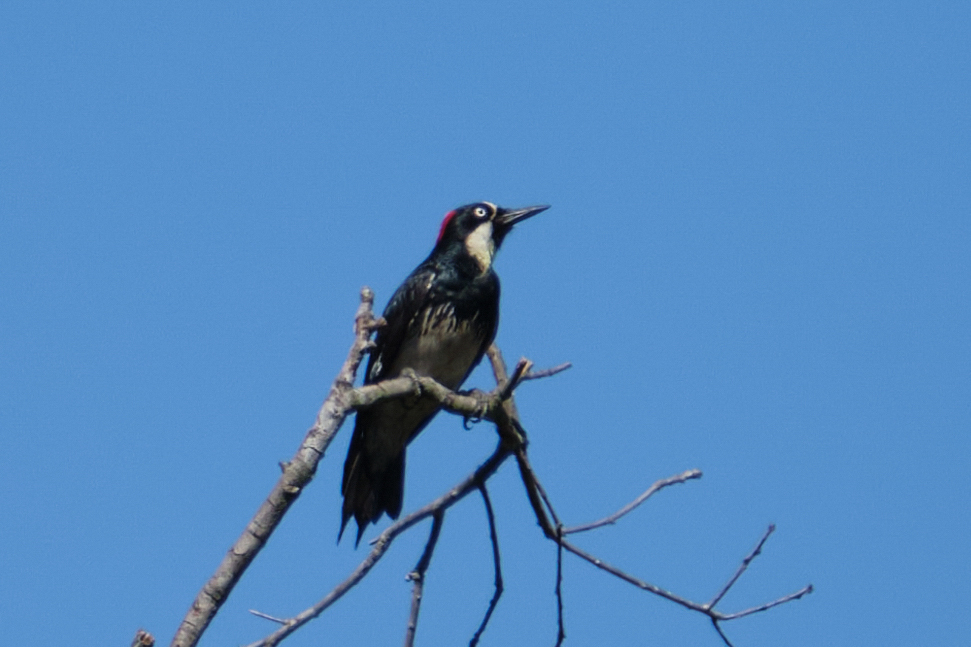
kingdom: Animalia
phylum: Chordata
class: Aves
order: Piciformes
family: Picidae
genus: Melanerpes
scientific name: Melanerpes formicivorus
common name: Acorn woodpecker
